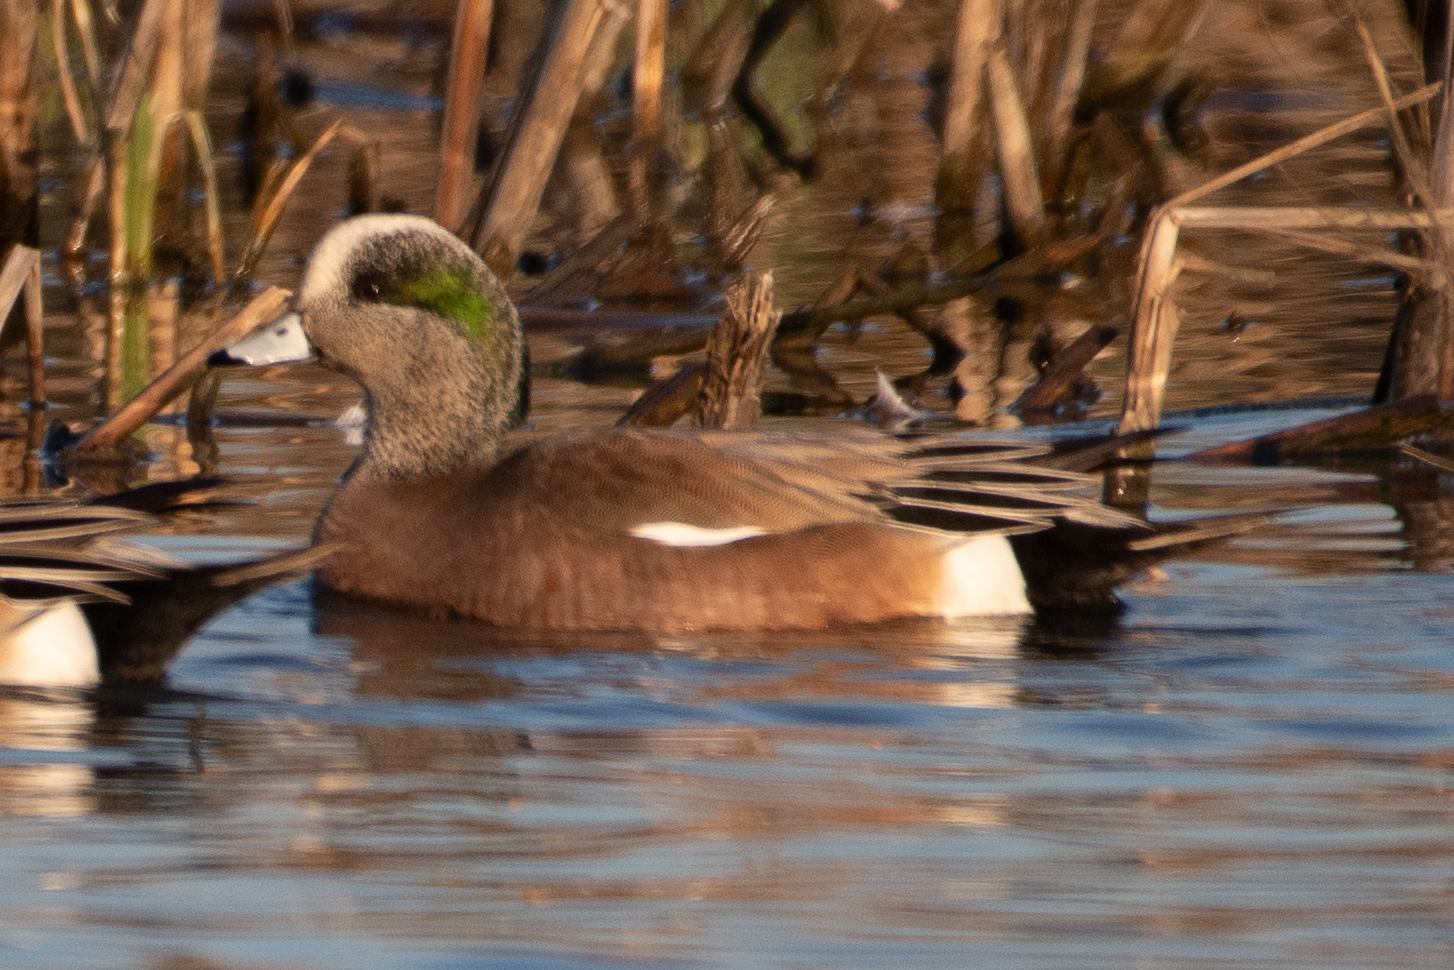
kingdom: Animalia
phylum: Chordata
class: Aves
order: Anseriformes
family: Anatidae
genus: Mareca
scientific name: Mareca americana
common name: American wigeon
